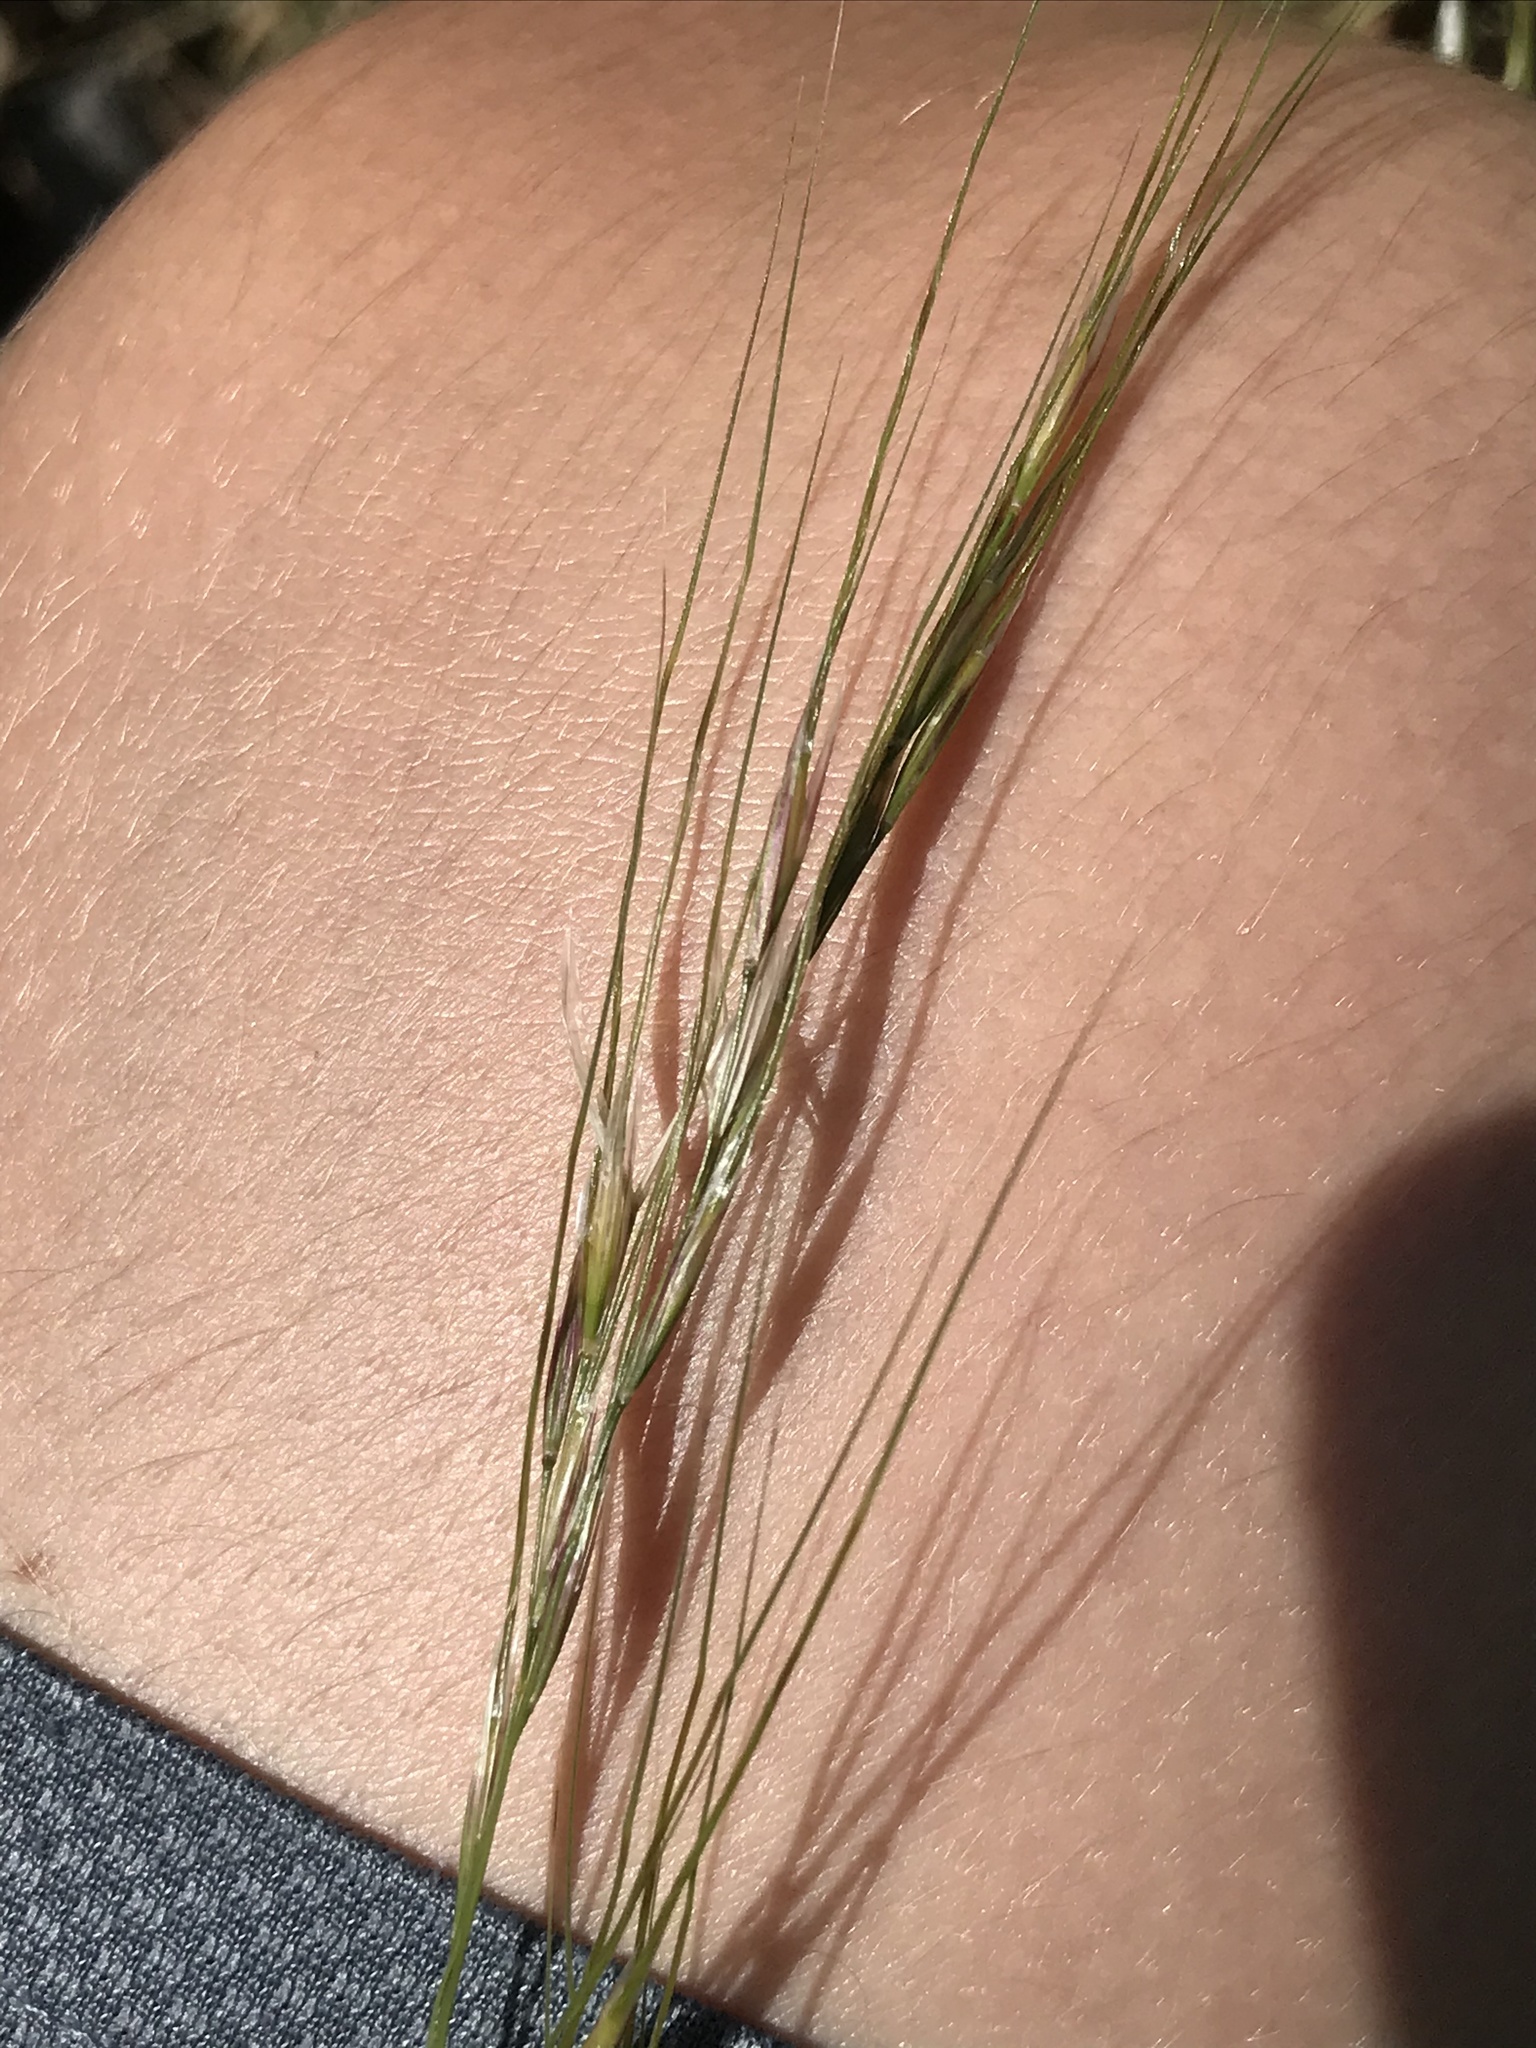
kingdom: Plantae
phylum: Tracheophyta
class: Liliopsida
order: Poales
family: Poaceae
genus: Nassella
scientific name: Nassella leucotricha
